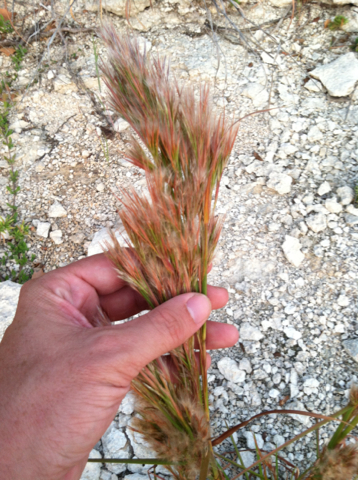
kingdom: Plantae
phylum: Tracheophyta
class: Liliopsida
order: Poales
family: Poaceae
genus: Andropogon
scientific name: Andropogon tenuispatheus
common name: Bushy bluestem
